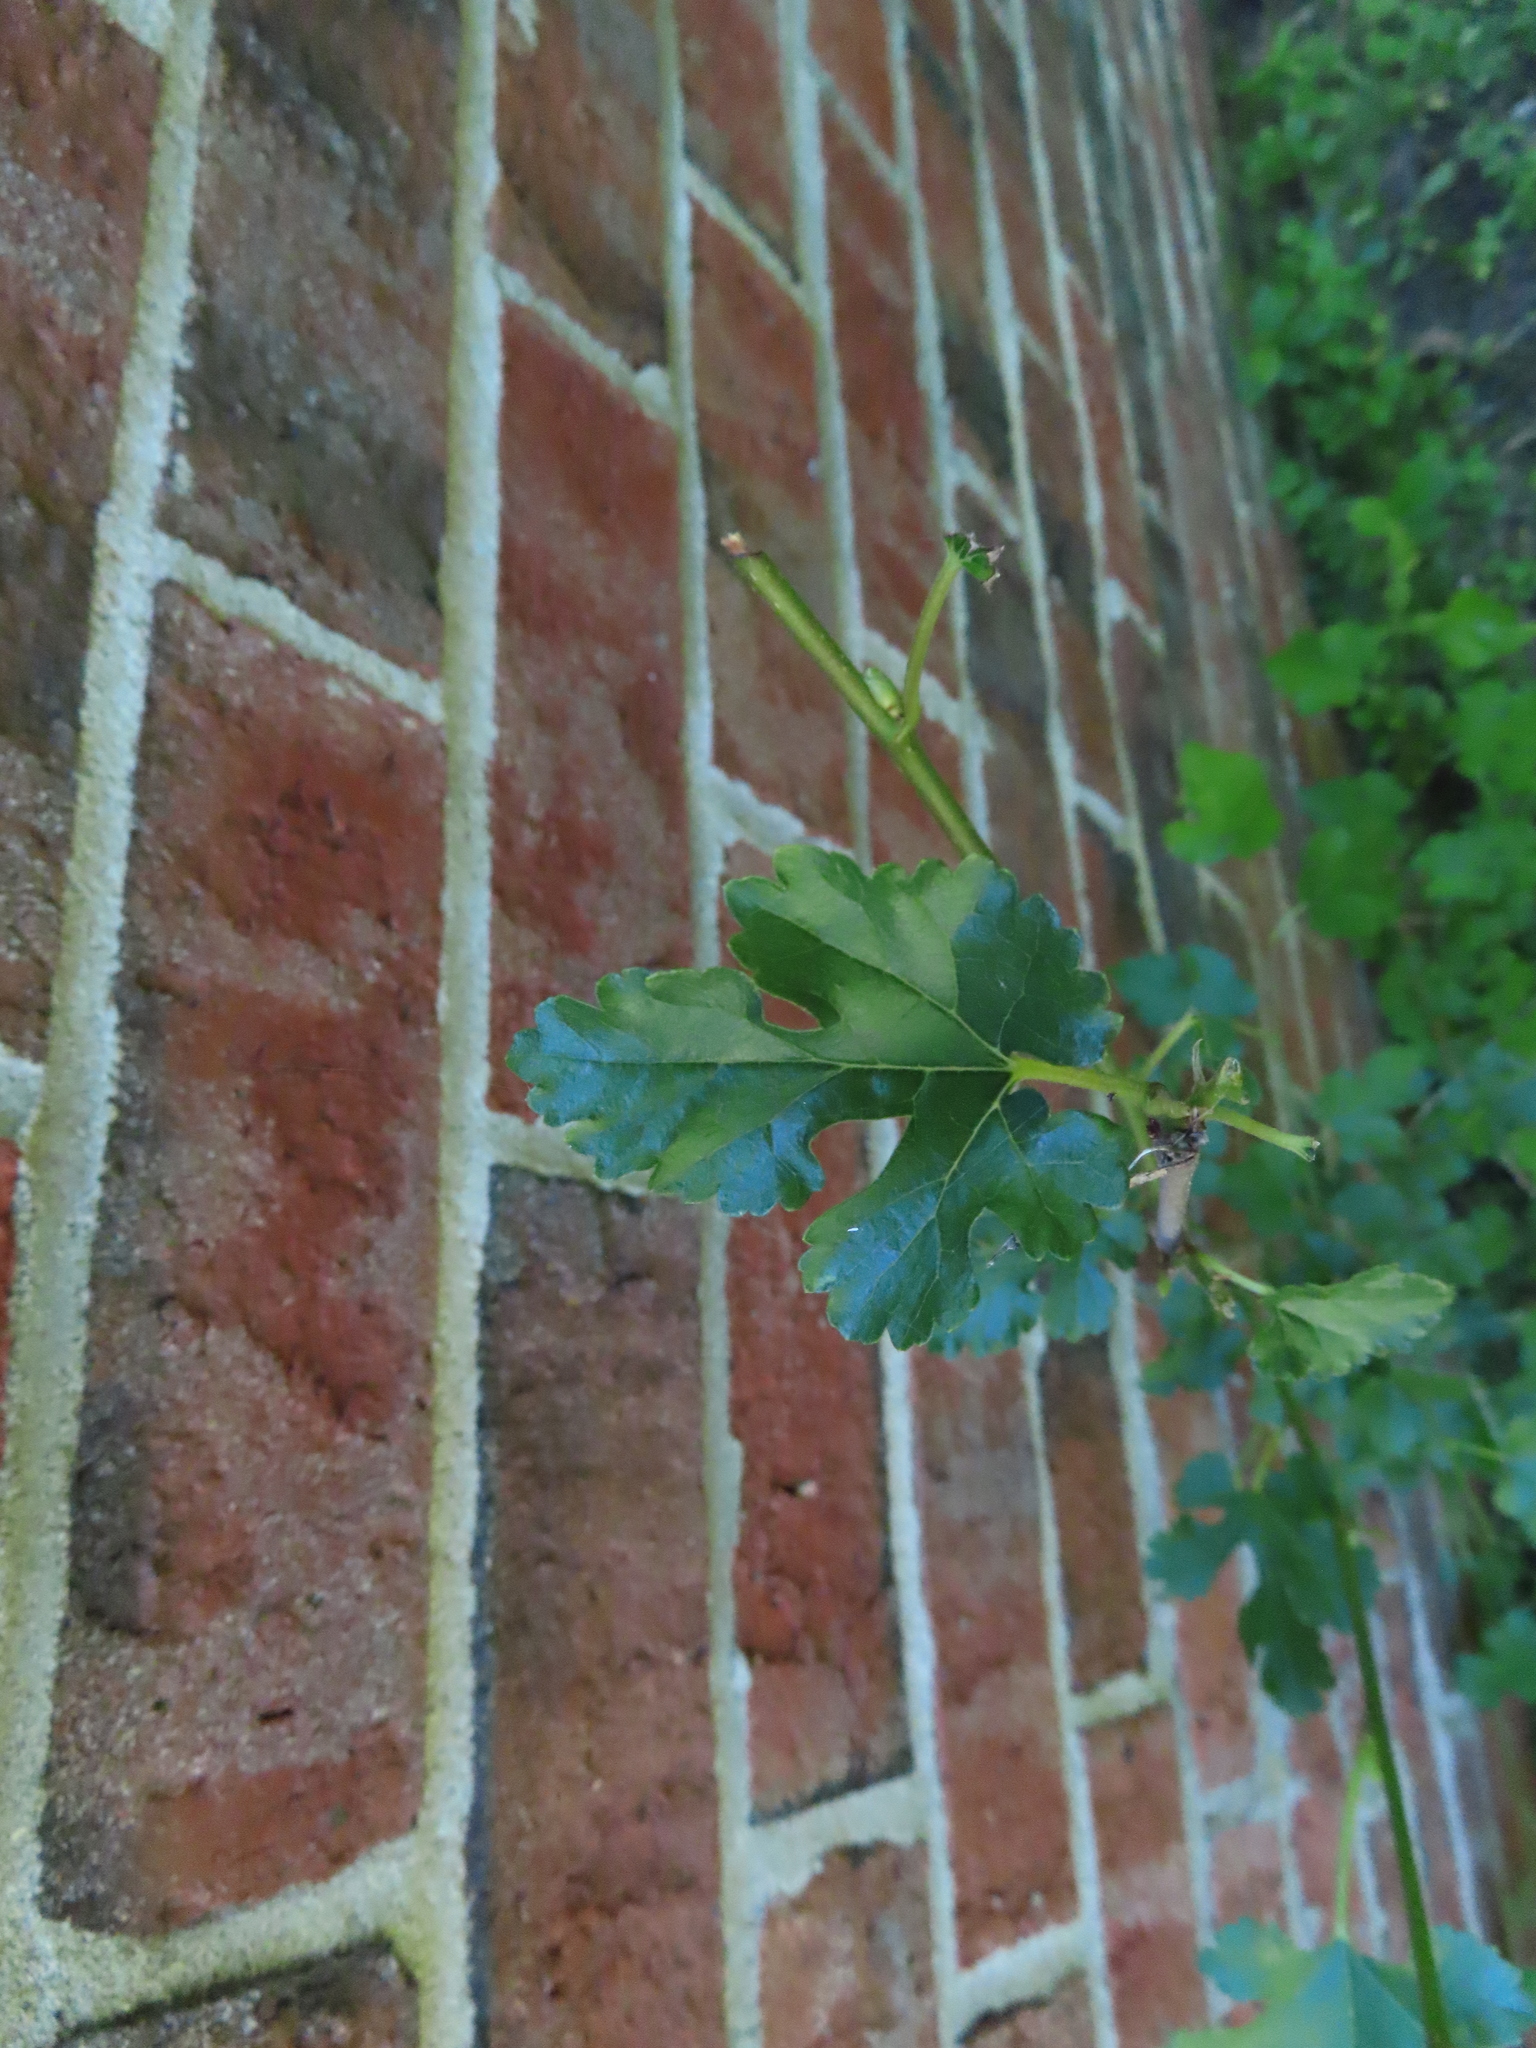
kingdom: Plantae
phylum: Tracheophyta
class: Magnoliopsida
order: Rosales
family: Moraceae
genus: Morus
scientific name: Morus alba
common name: White mulberry
